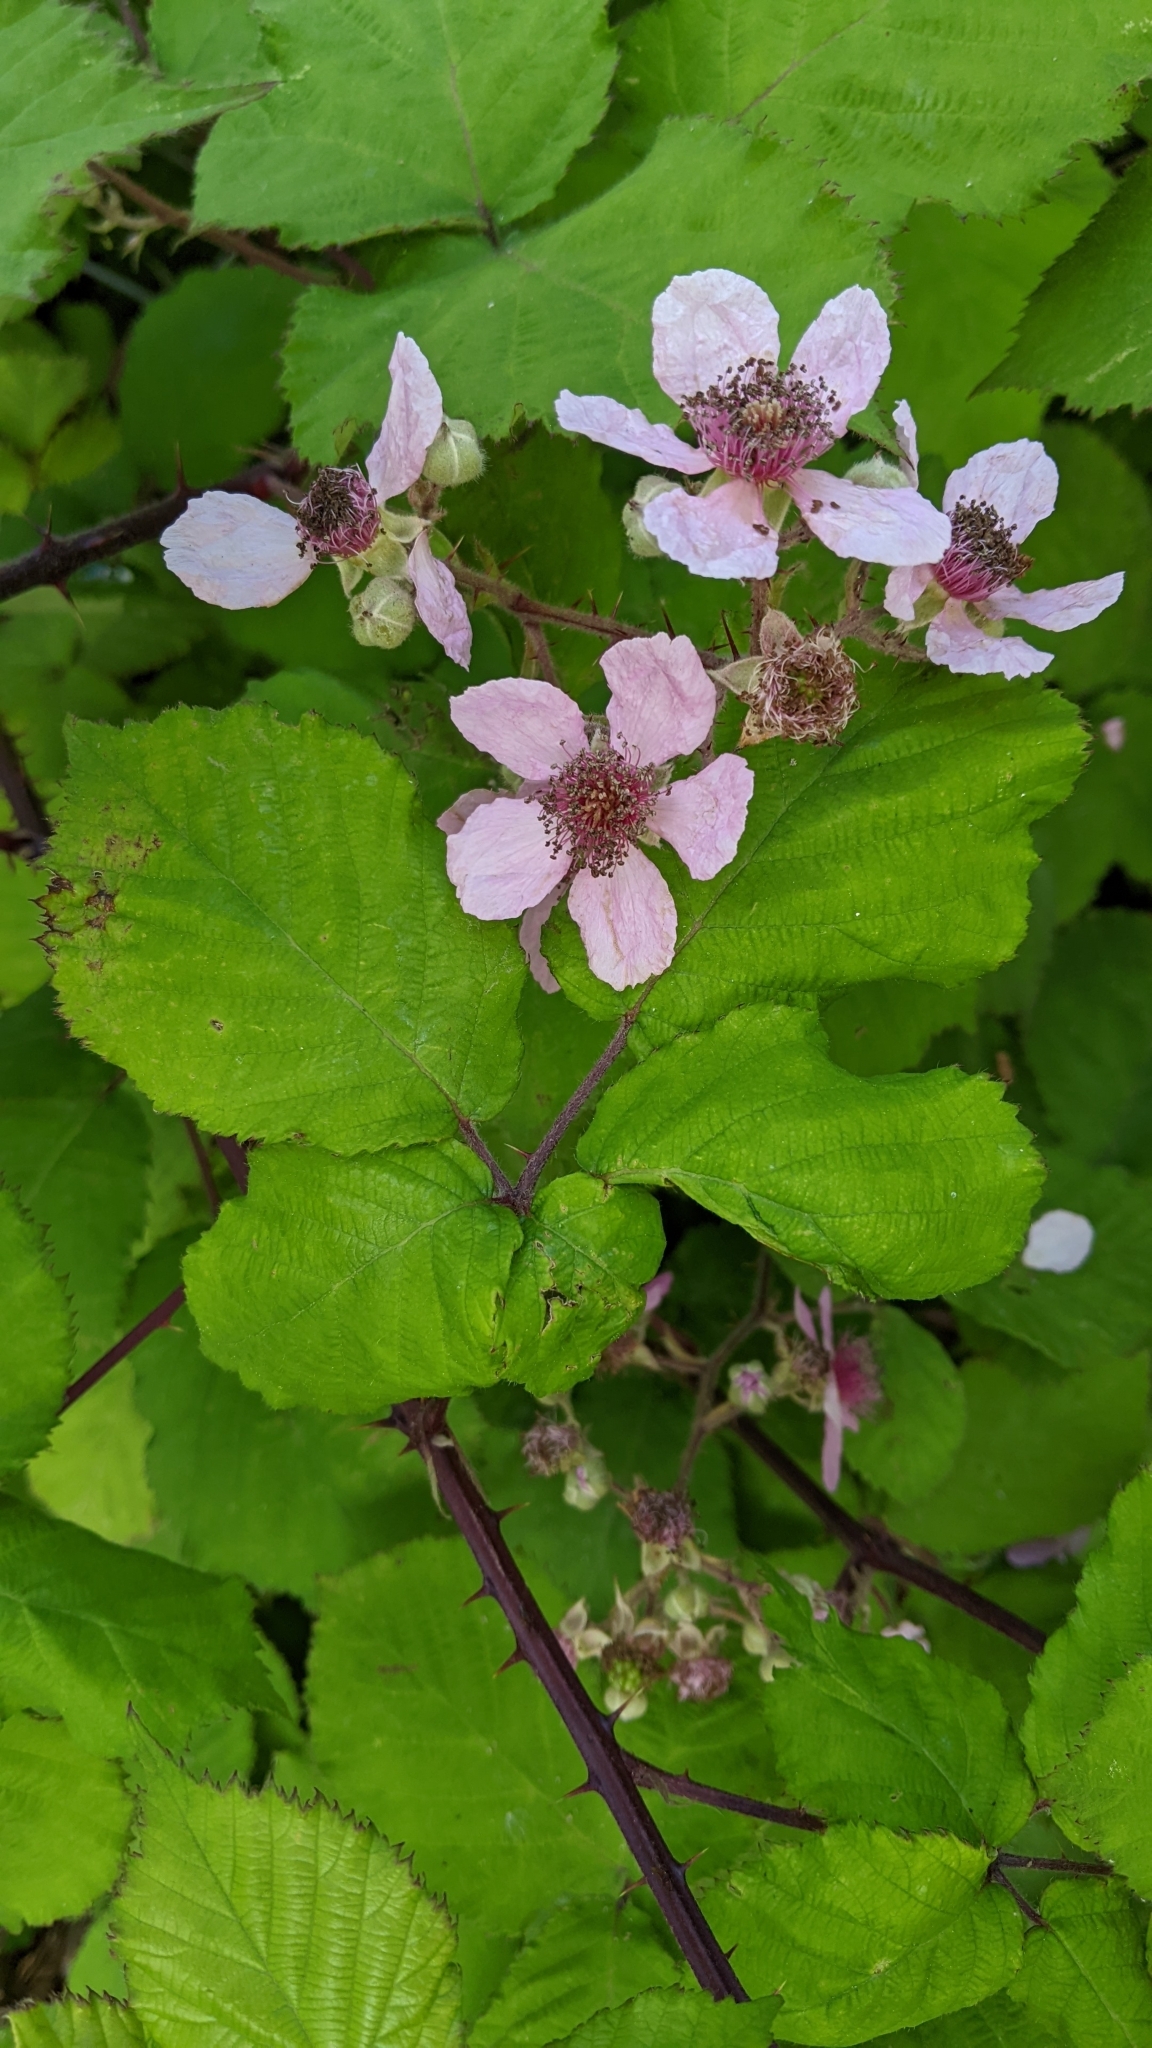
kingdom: Plantae
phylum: Tracheophyta
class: Magnoliopsida
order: Rosales
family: Rosaceae
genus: Rubus
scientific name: Rubus vestitus
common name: European blackberry
